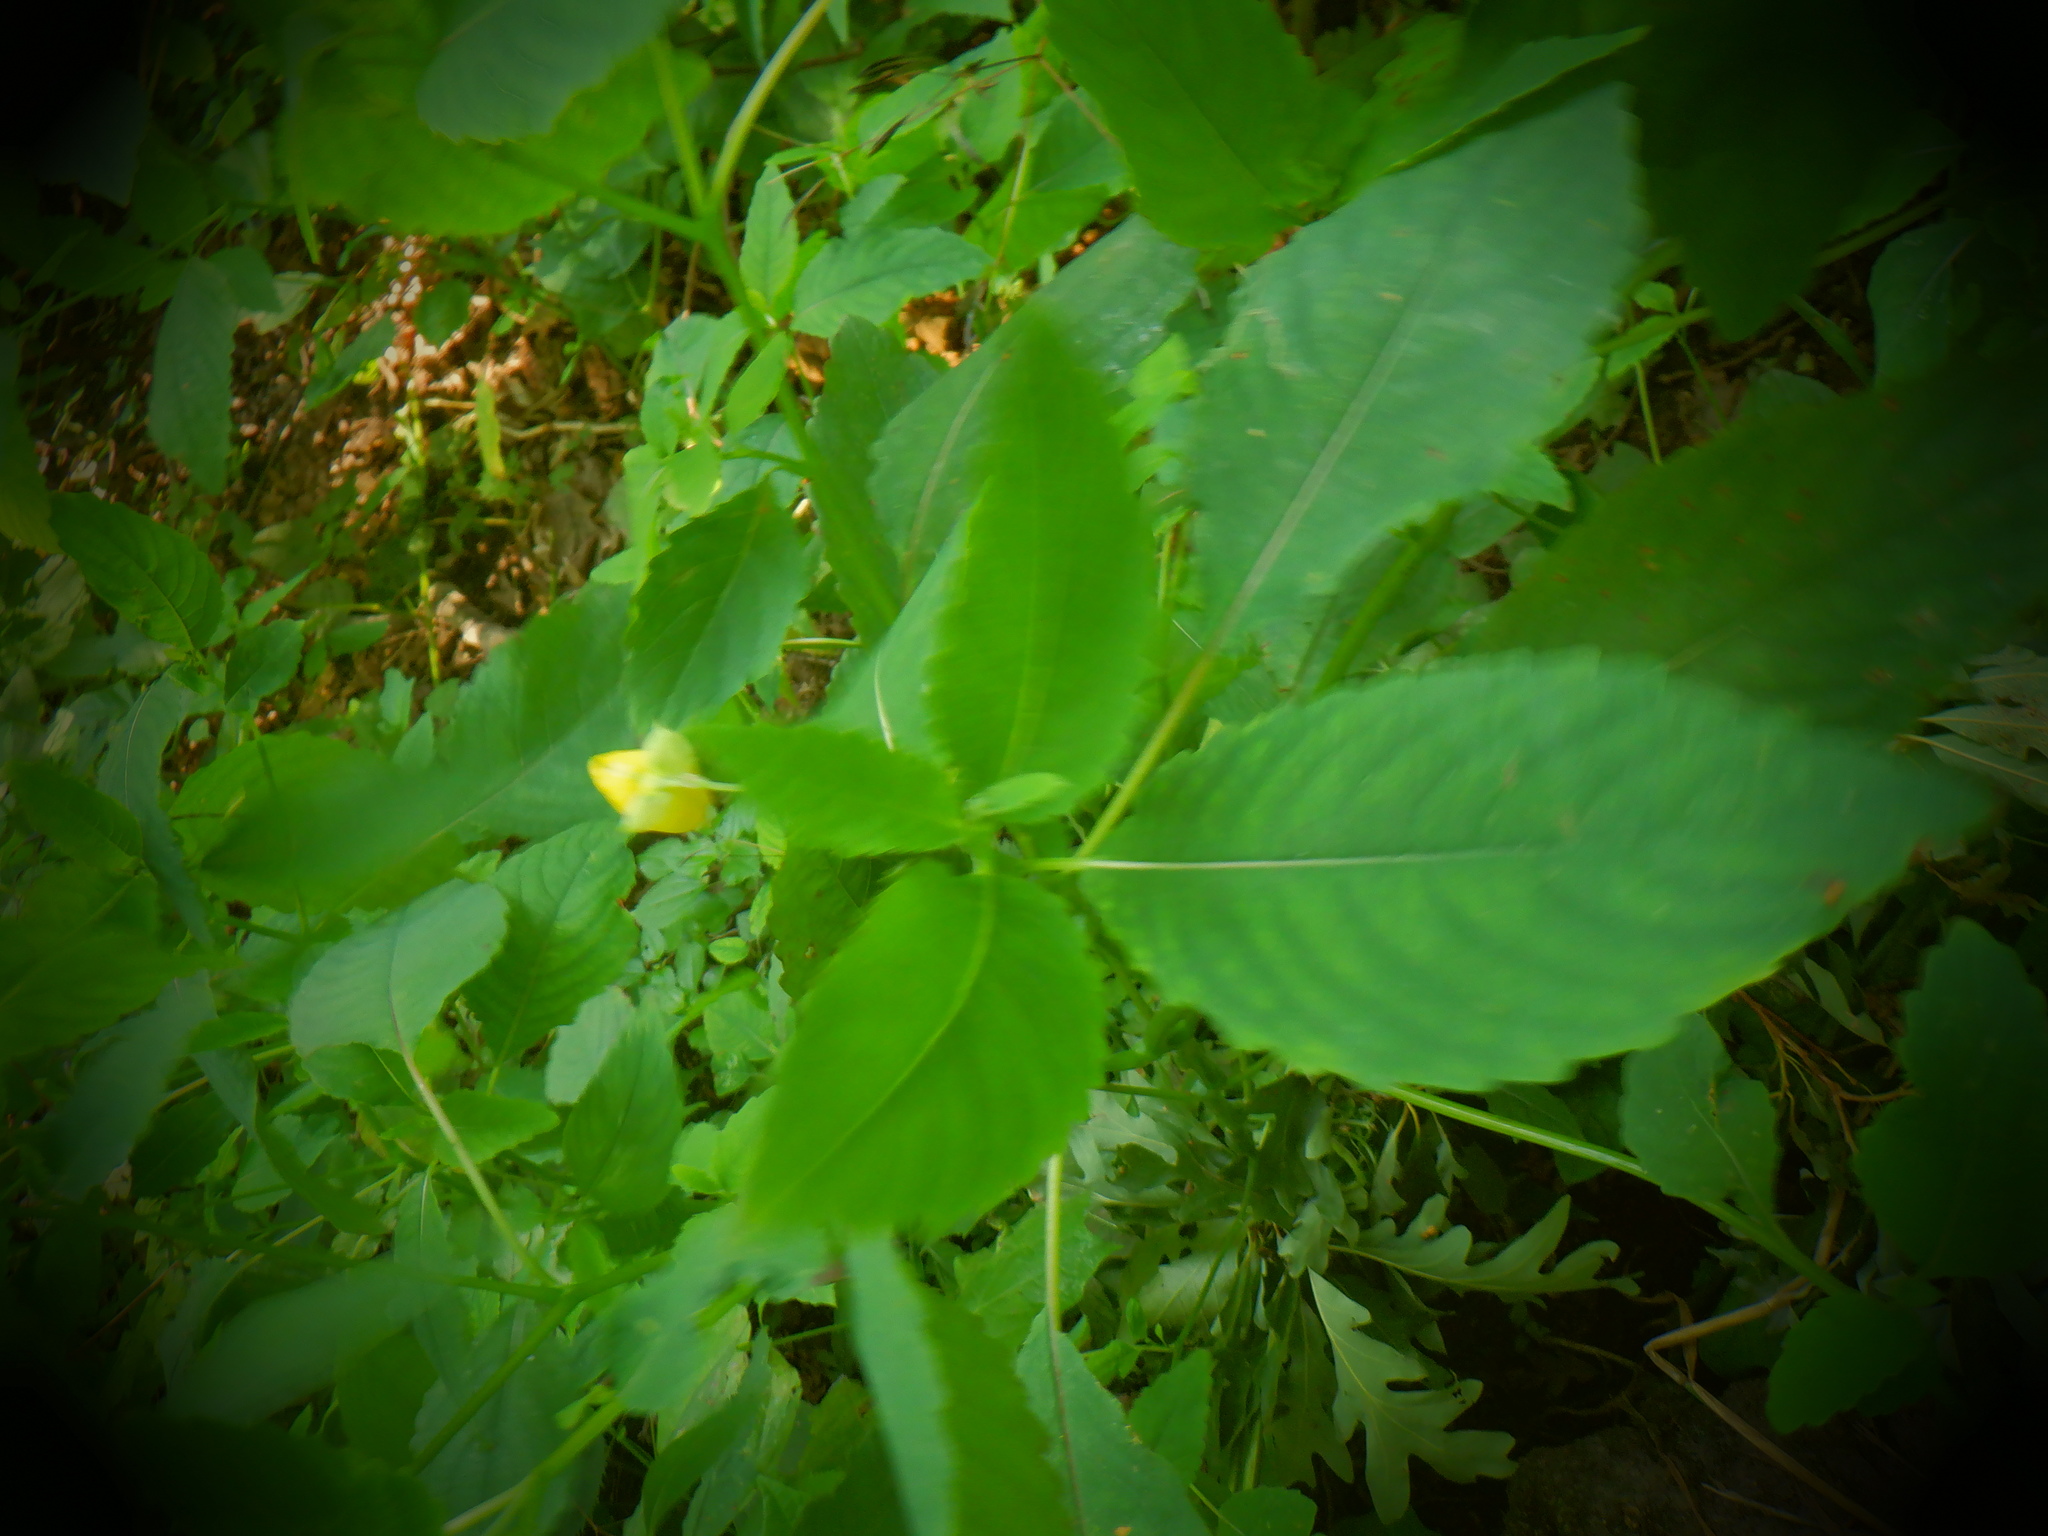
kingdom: Plantae
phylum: Tracheophyta
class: Magnoliopsida
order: Ericales
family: Balsaminaceae
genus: Impatiens
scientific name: Impatiens pallida
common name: Pale snapweed
